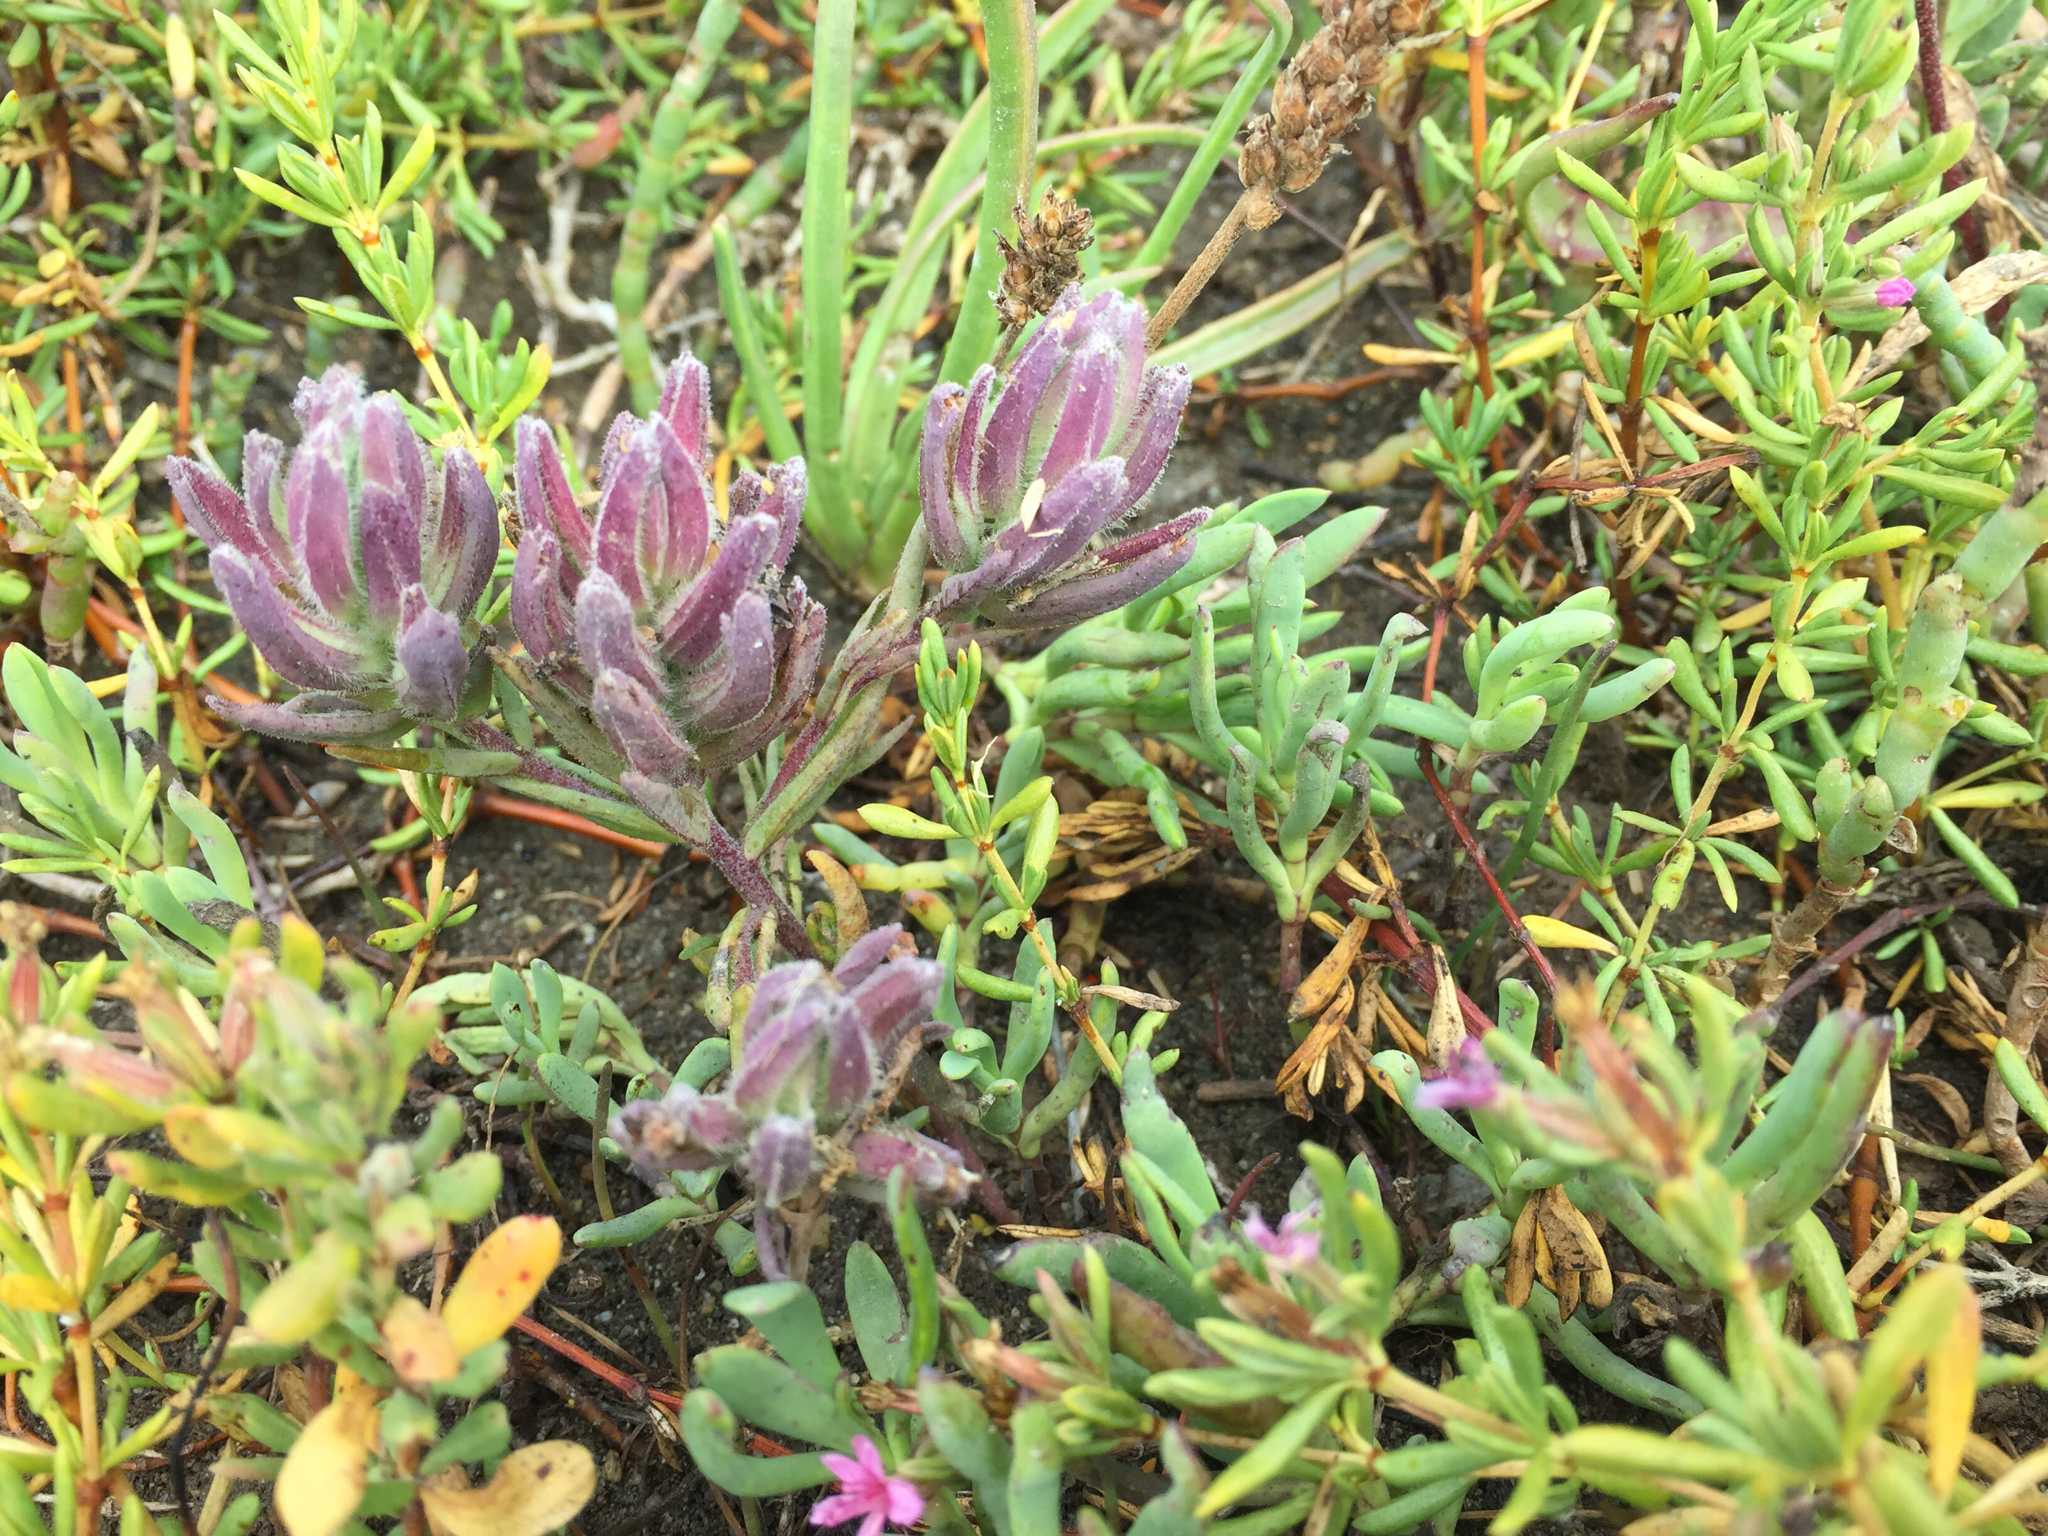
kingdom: Plantae
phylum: Tracheophyta
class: Magnoliopsida
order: Lamiales
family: Orobanchaceae
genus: Chloropyron
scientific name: Chloropyron maritimum
